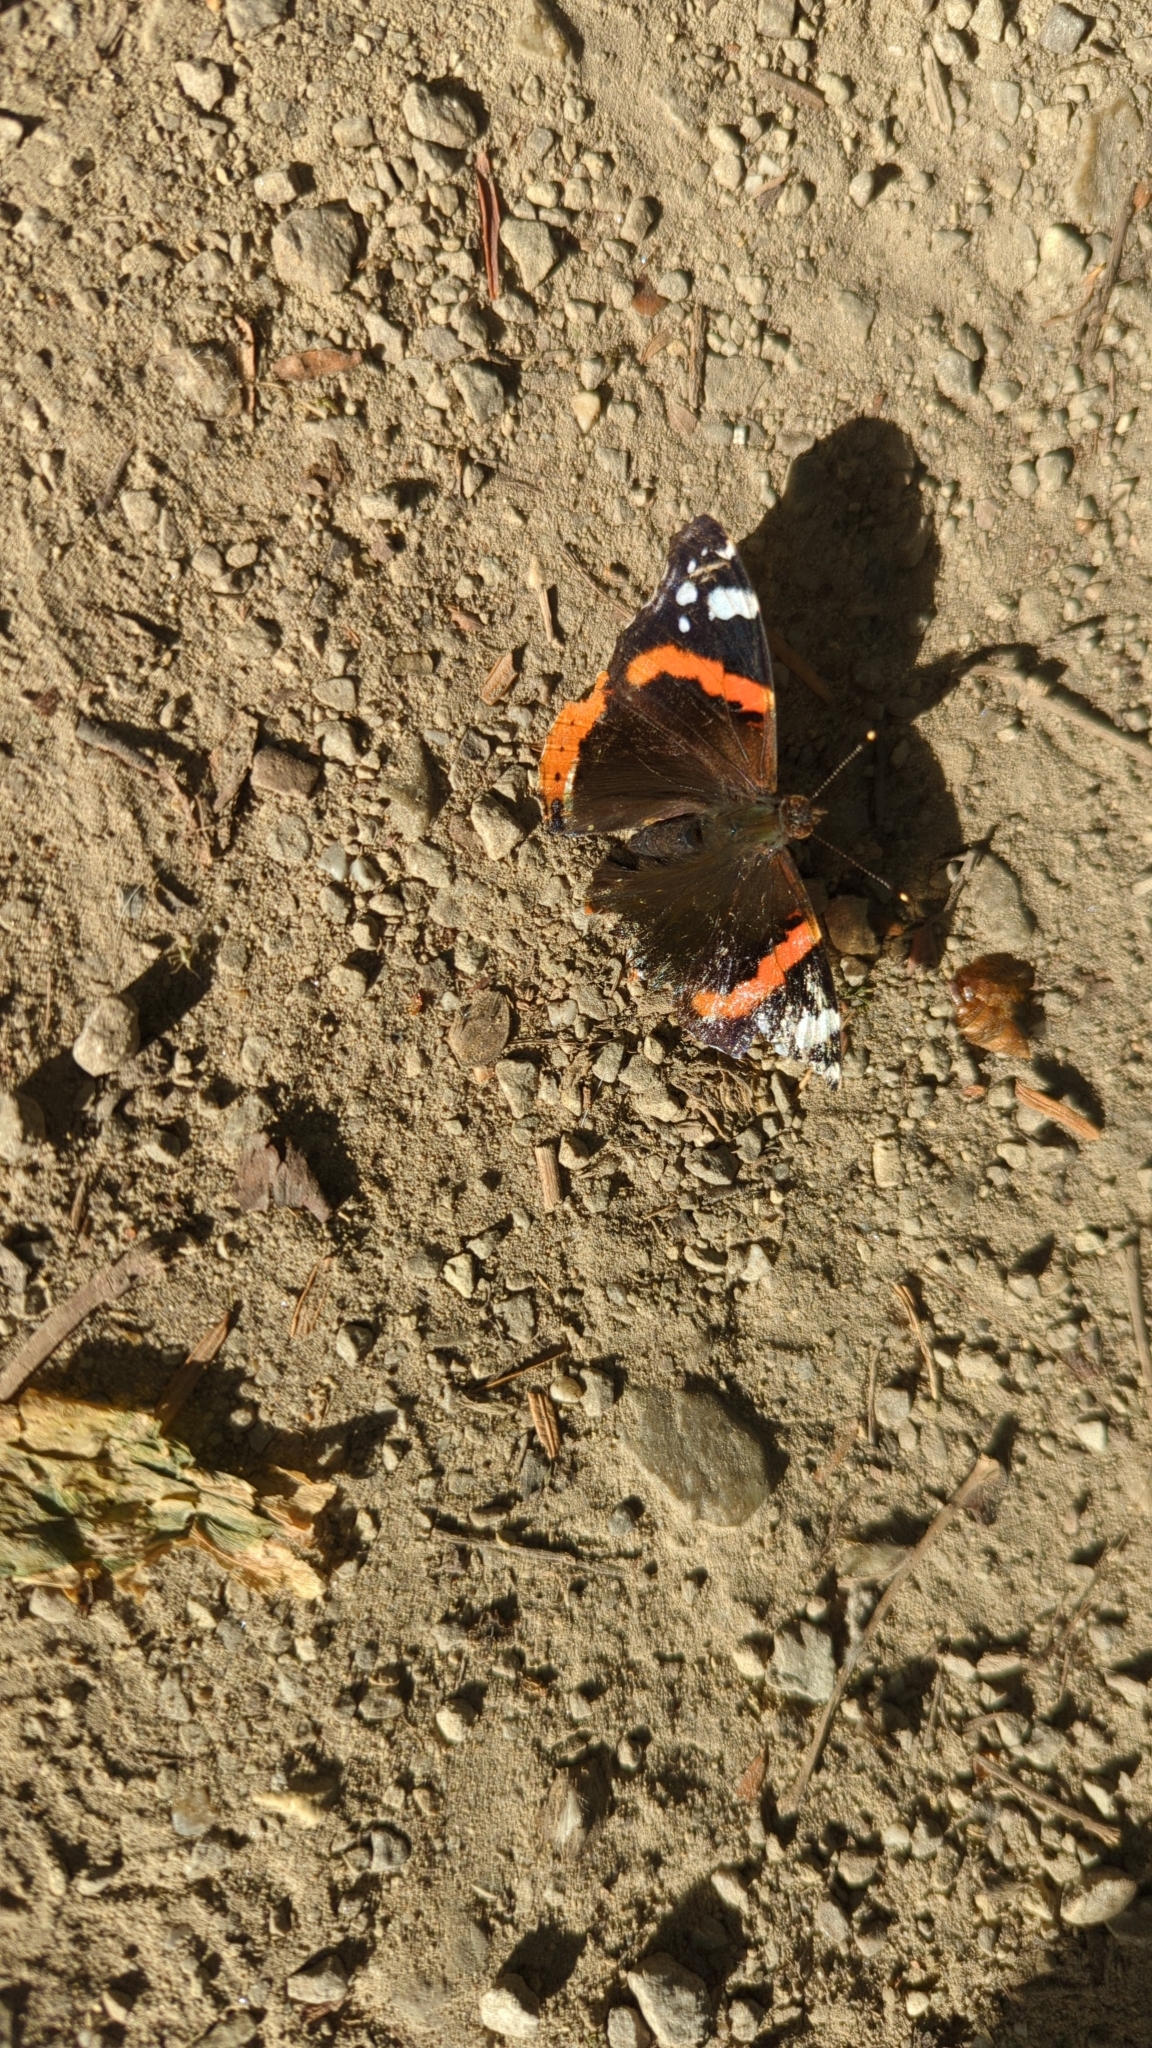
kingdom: Animalia
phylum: Arthropoda
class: Insecta
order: Lepidoptera
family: Nymphalidae
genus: Vanessa
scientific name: Vanessa atalanta
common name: Red admiral
